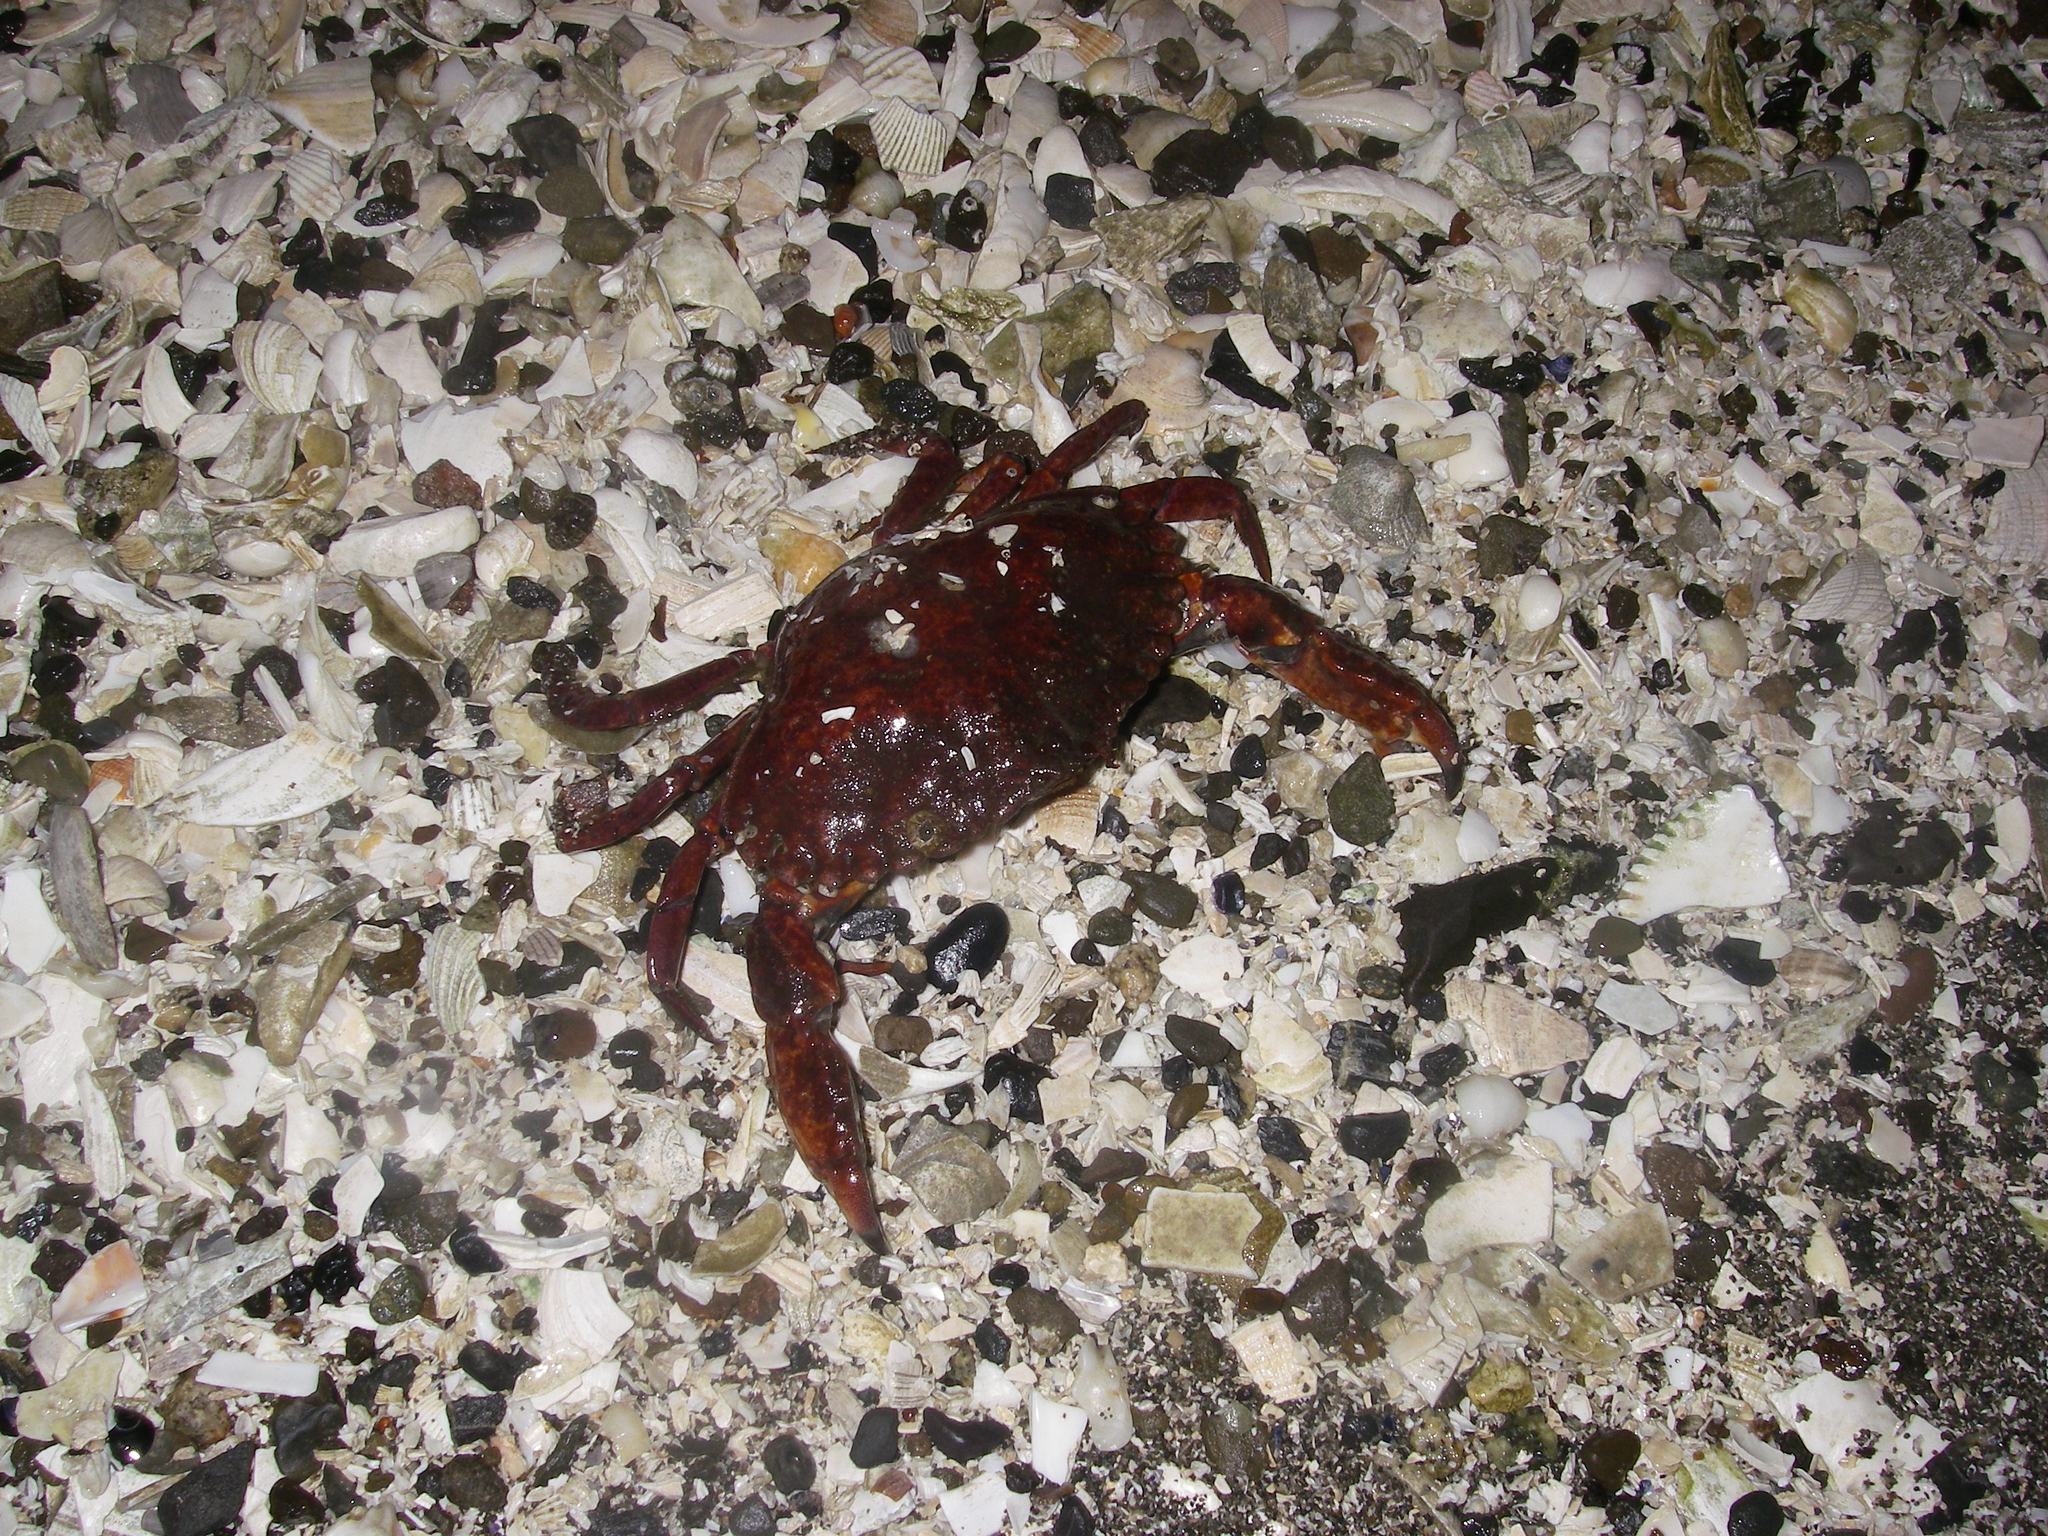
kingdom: Animalia
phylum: Arthropoda
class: Malacostraca
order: Decapoda
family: Cancridae
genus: Cancer
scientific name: Cancer productus
